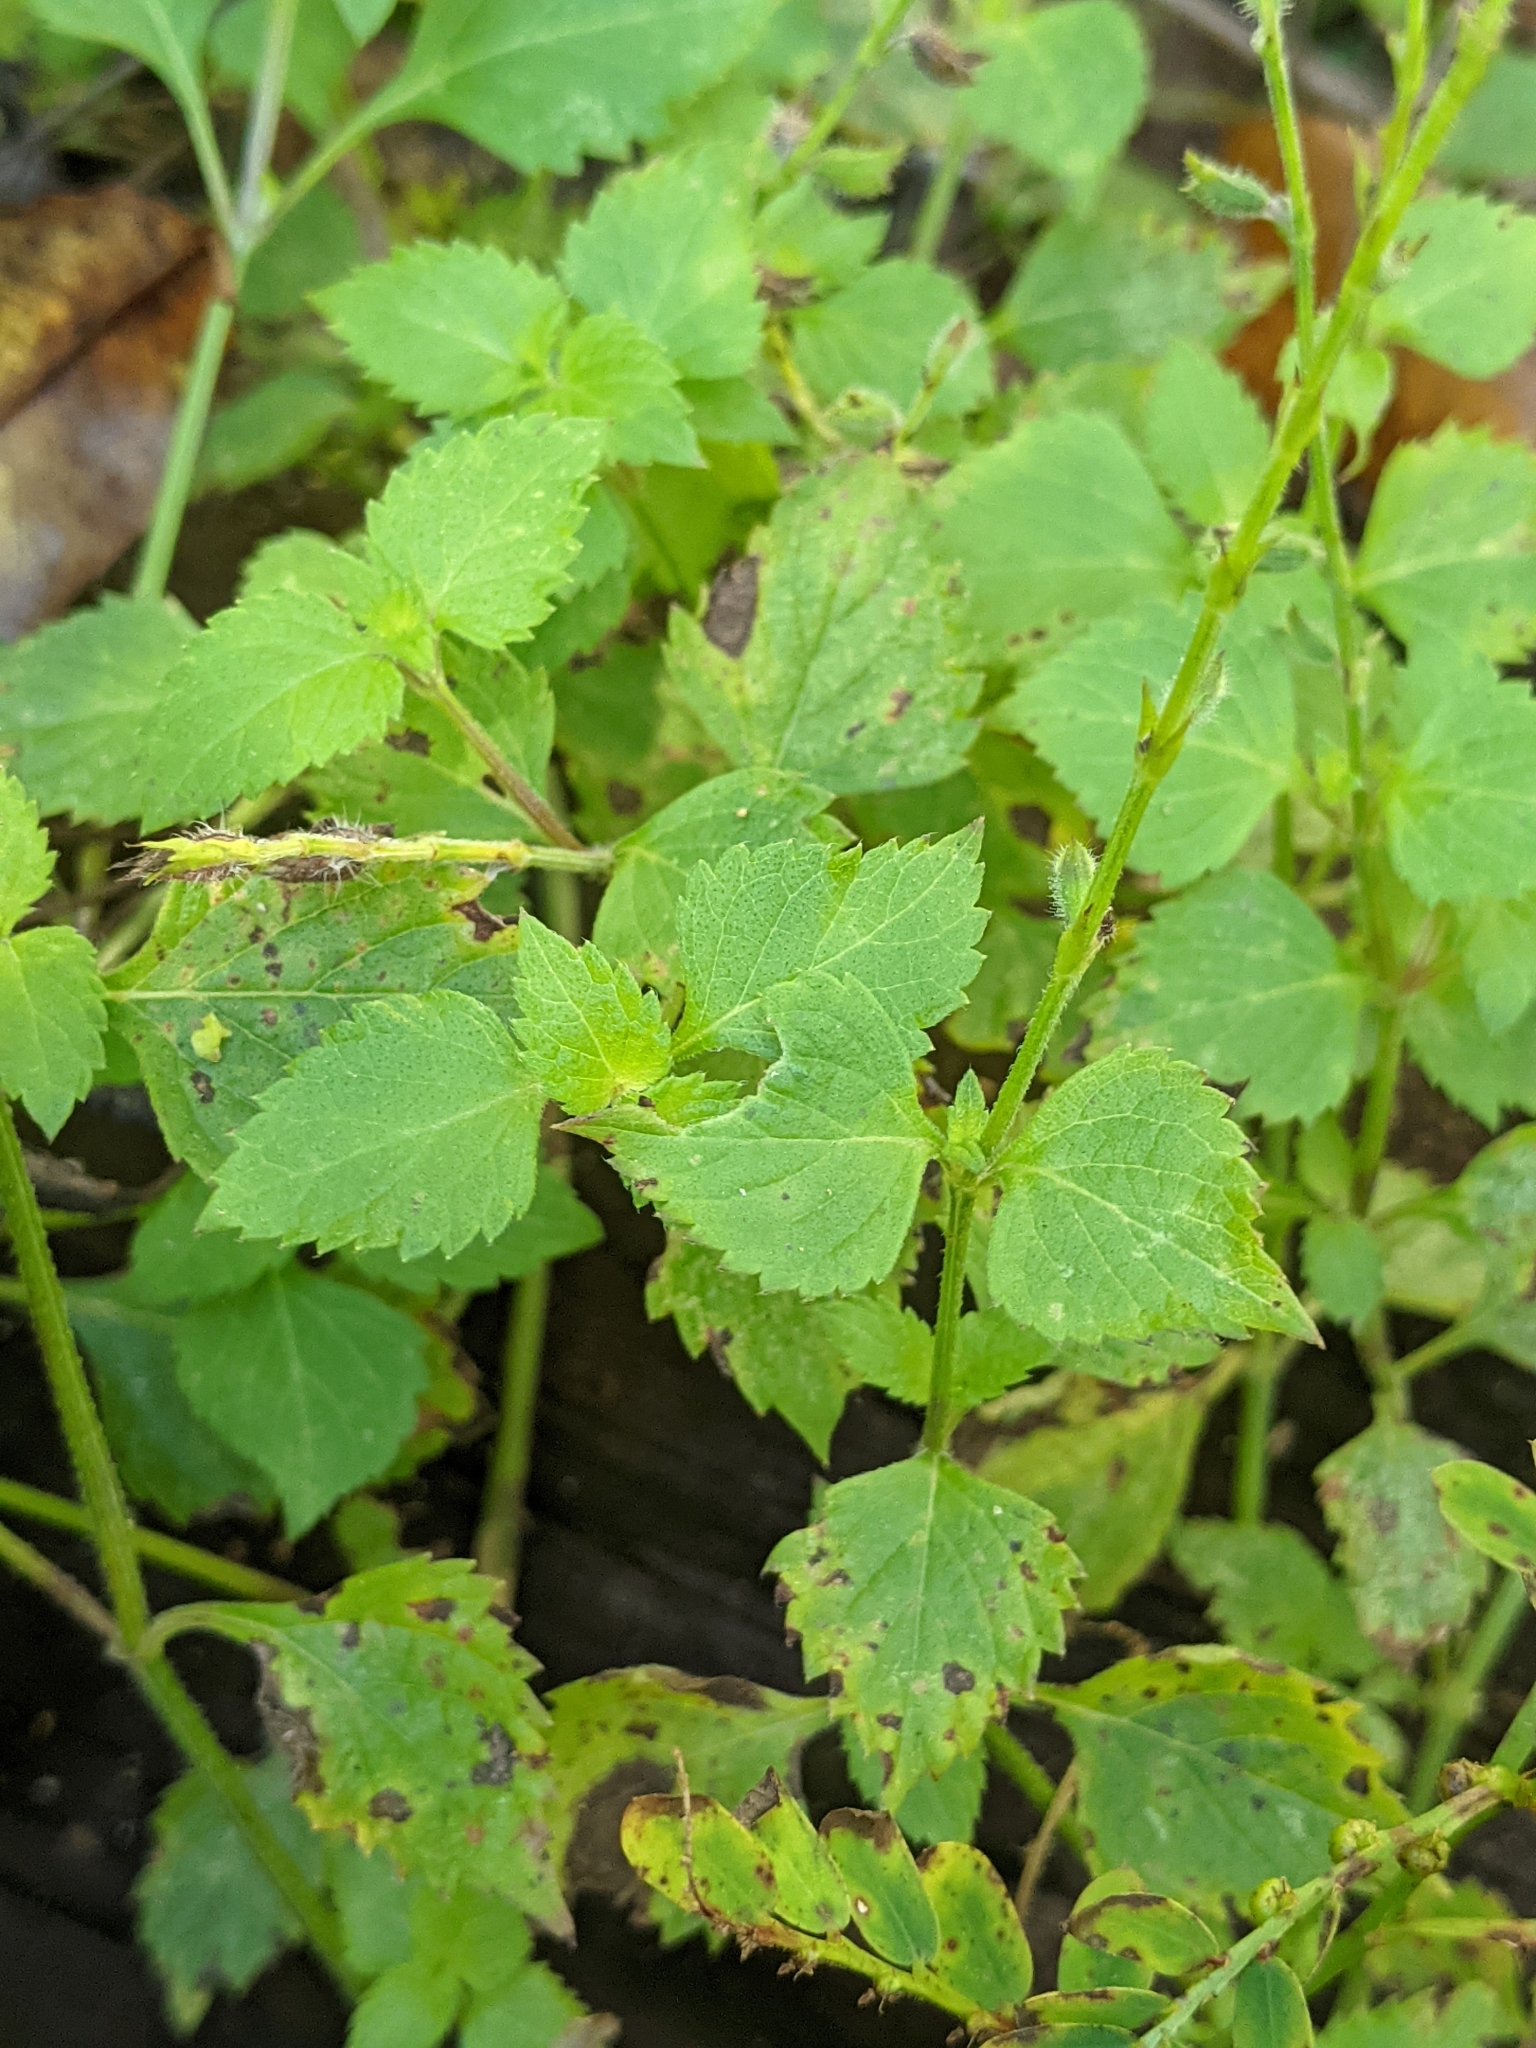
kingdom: Plantae
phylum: Tracheophyta
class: Magnoliopsida
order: Lamiales
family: Lamiaceae
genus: Salvia
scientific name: Salvia misella
